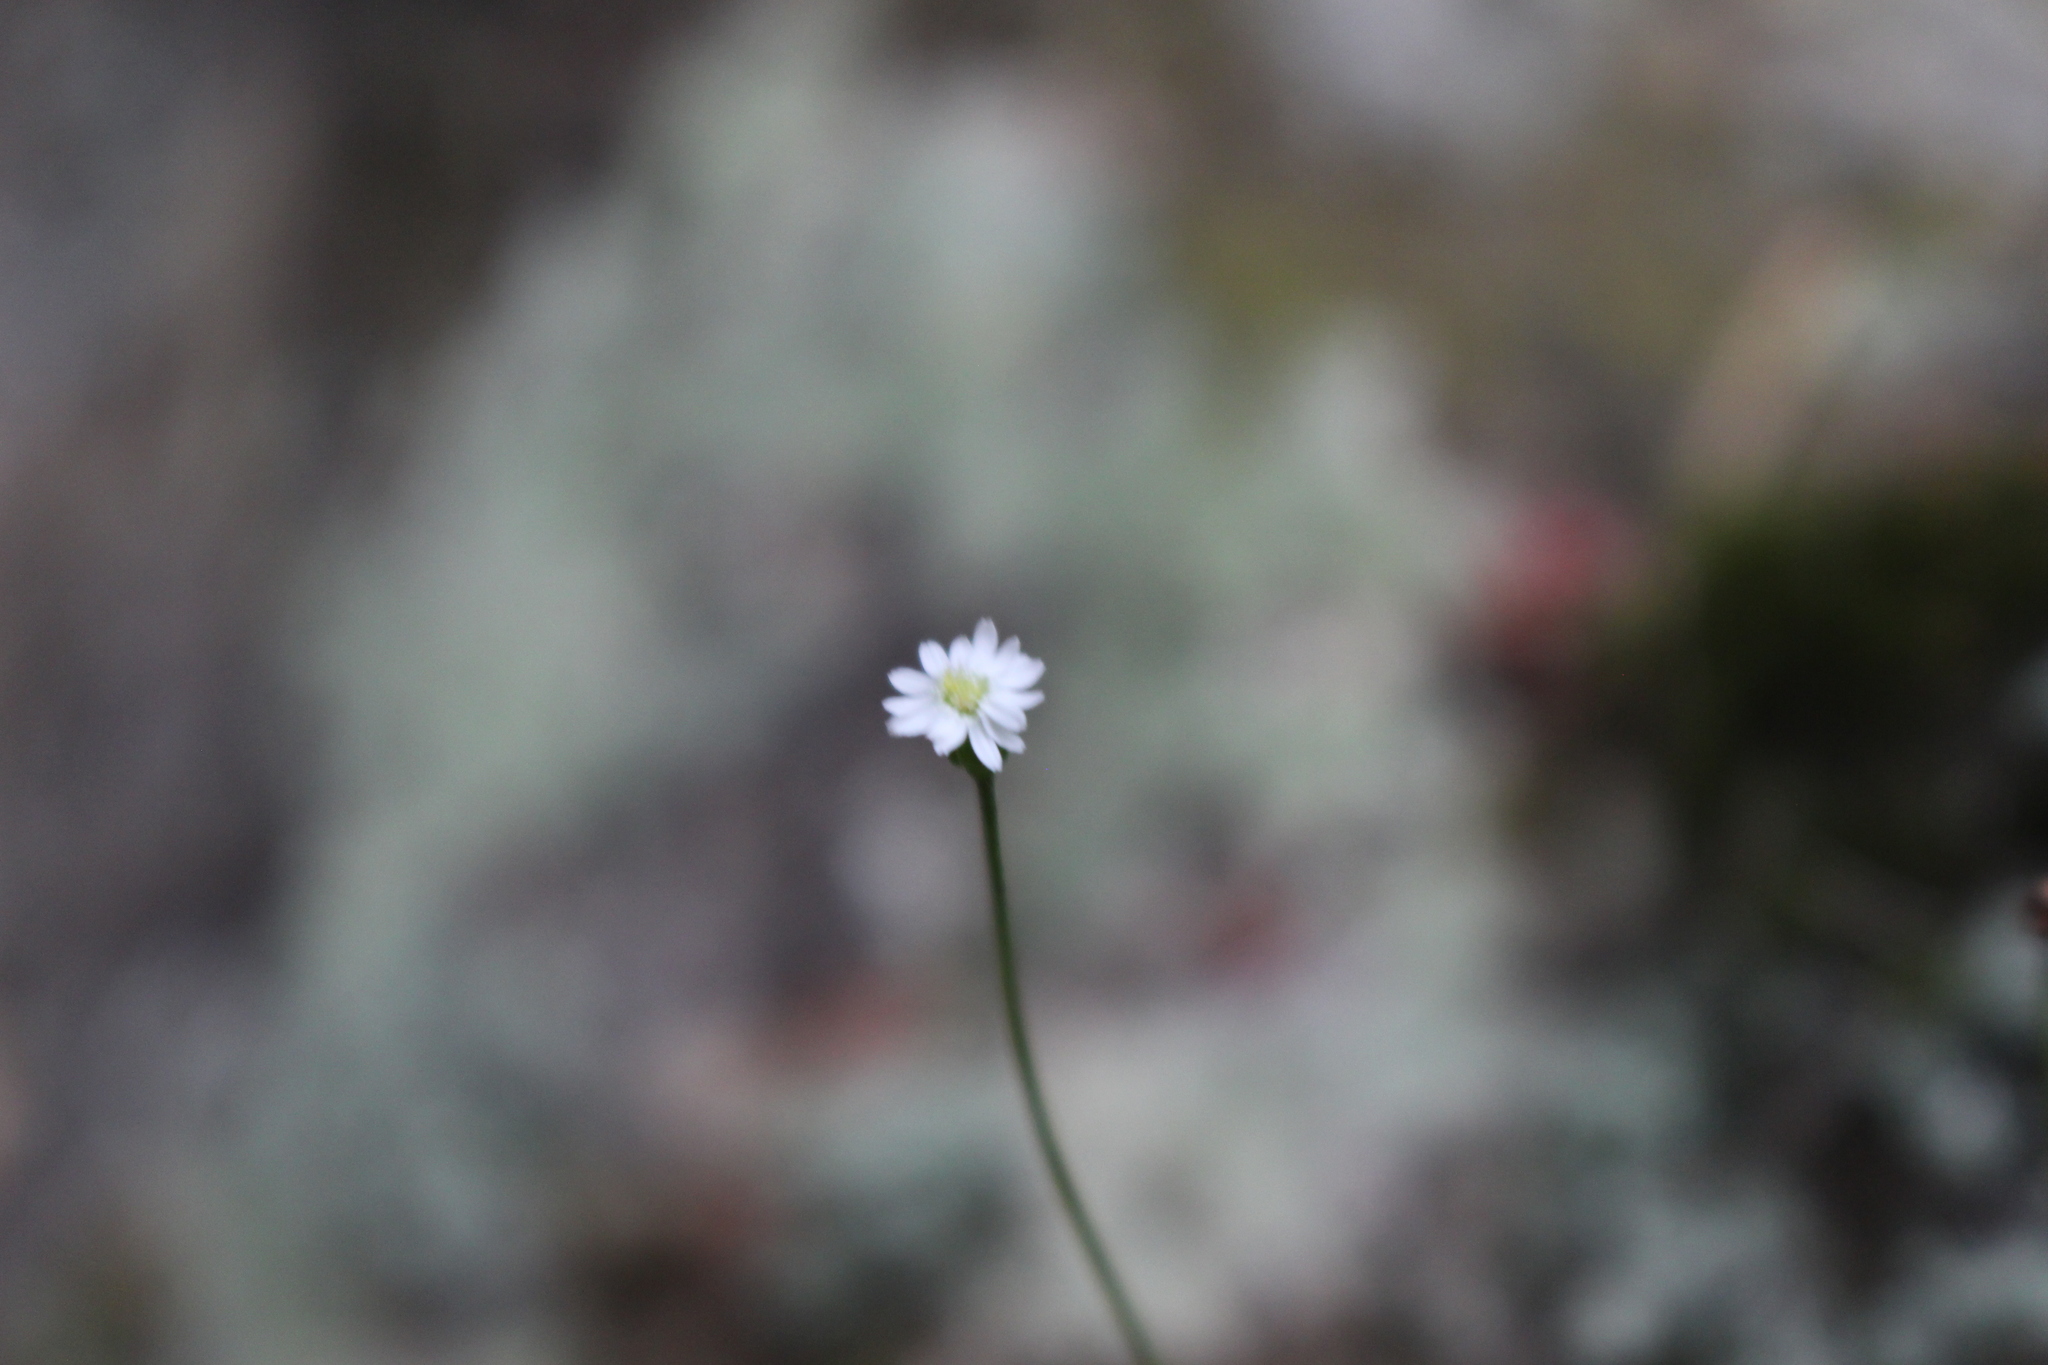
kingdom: Plantae
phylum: Tracheophyta
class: Magnoliopsida
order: Asterales
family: Asteraceae
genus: Lagenophora
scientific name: Lagenophora strangulata
